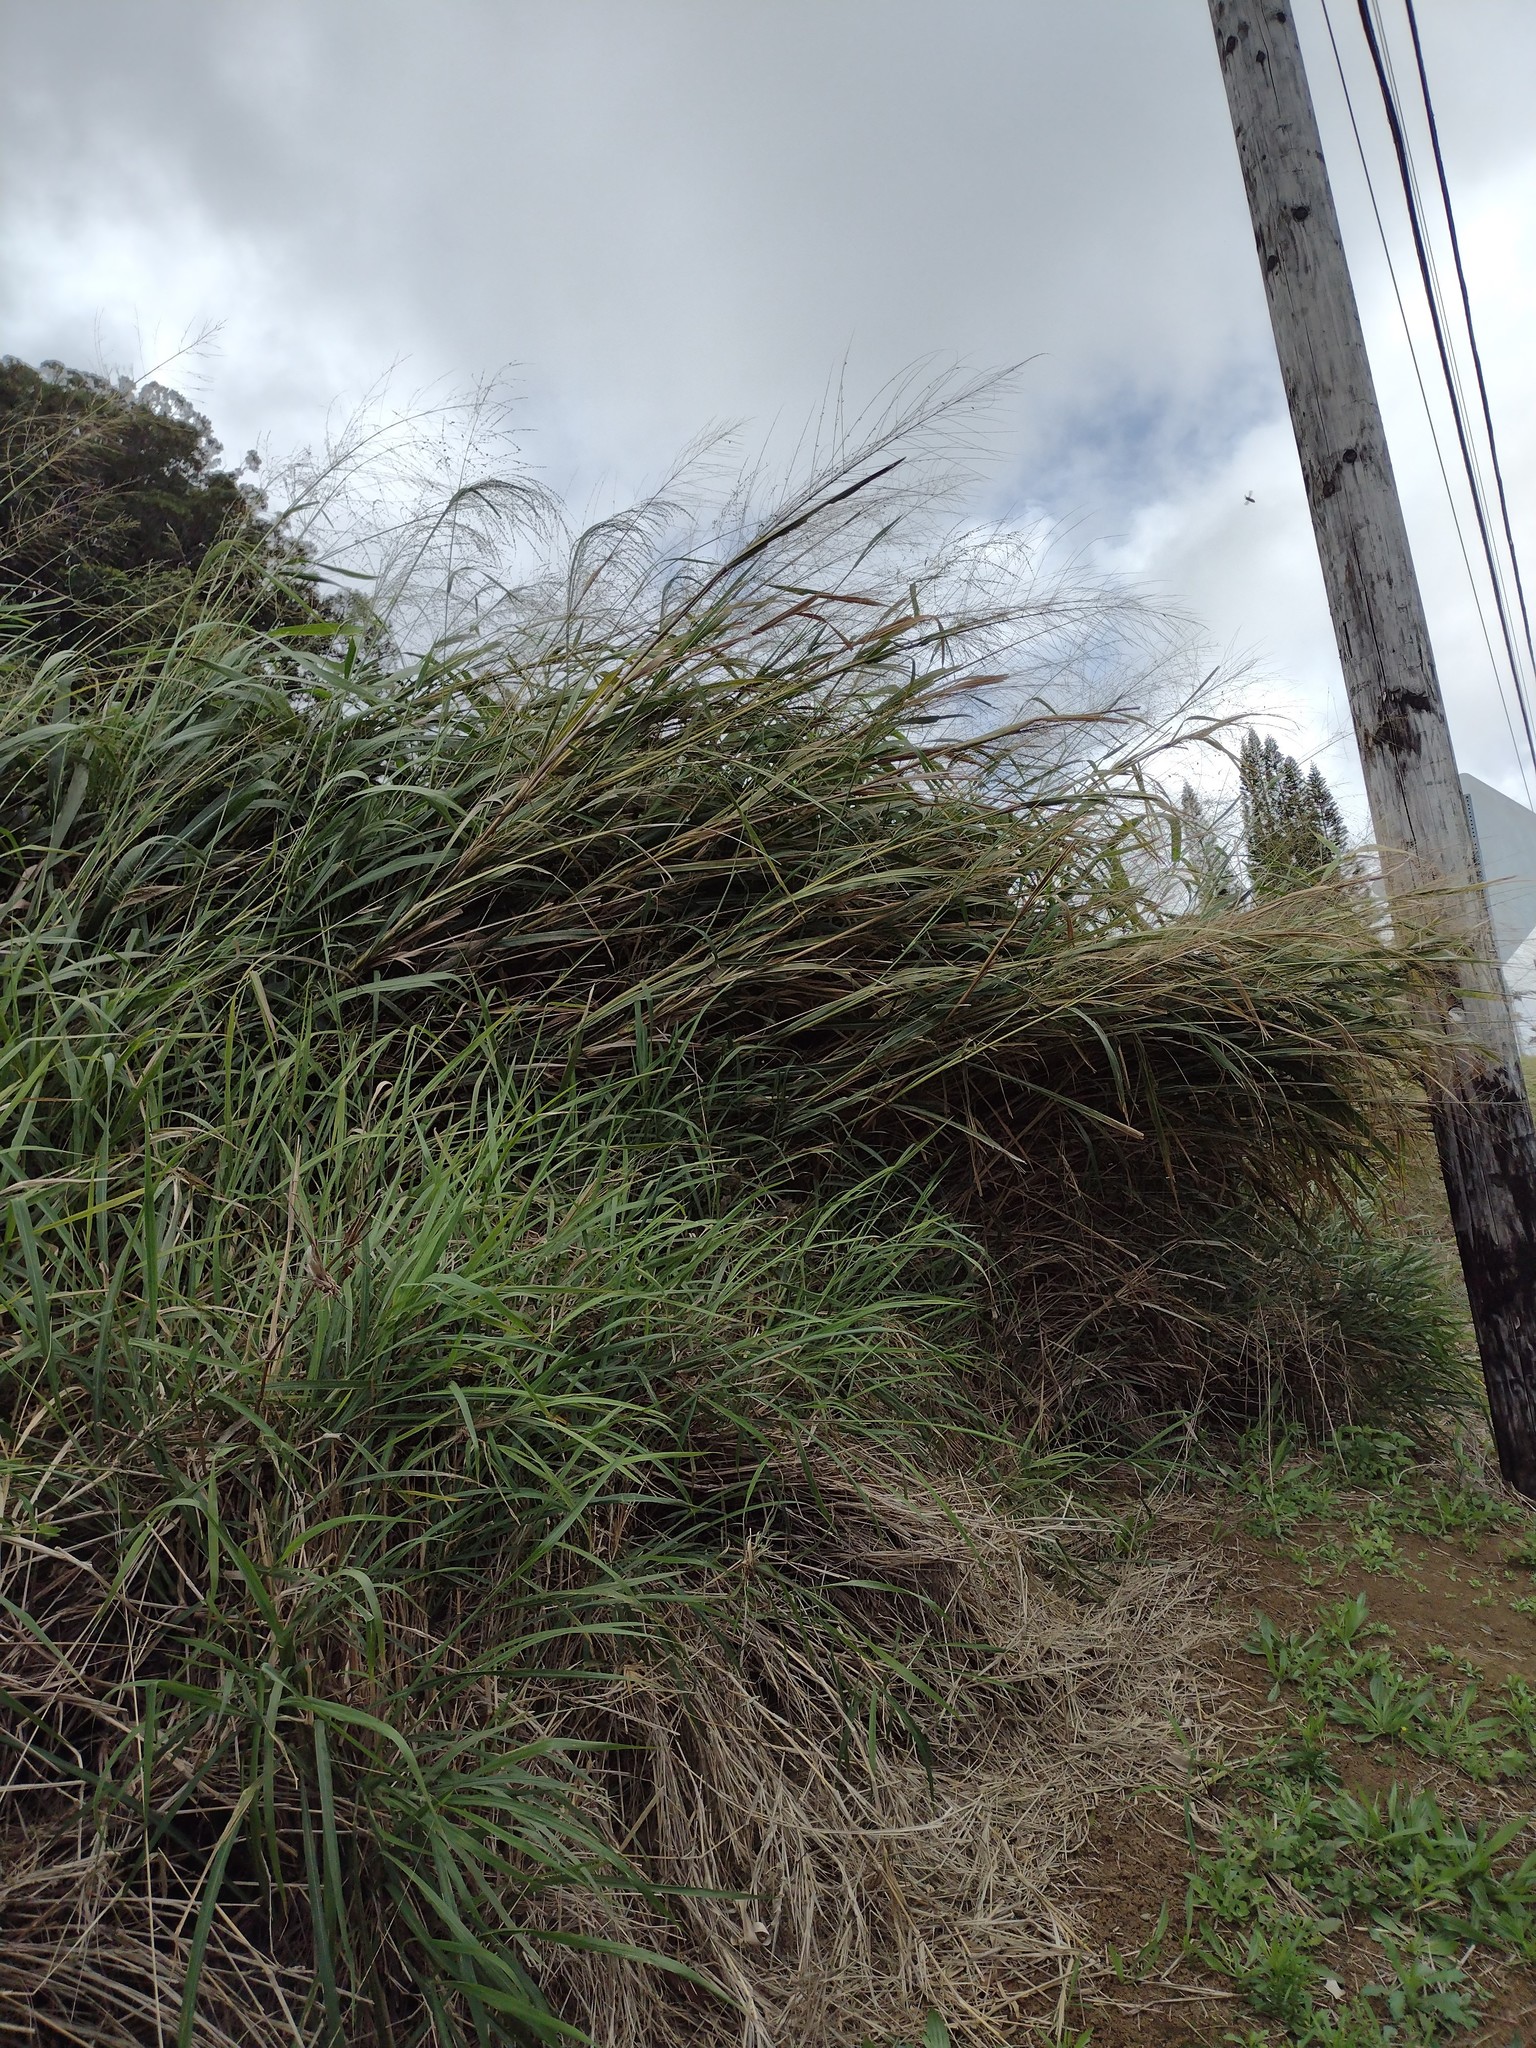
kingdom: Plantae
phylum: Tracheophyta
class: Liliopsida
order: Poales
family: Poaceae
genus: Megathyrsus
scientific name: Megathyrsus maximus
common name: Guineagrass
